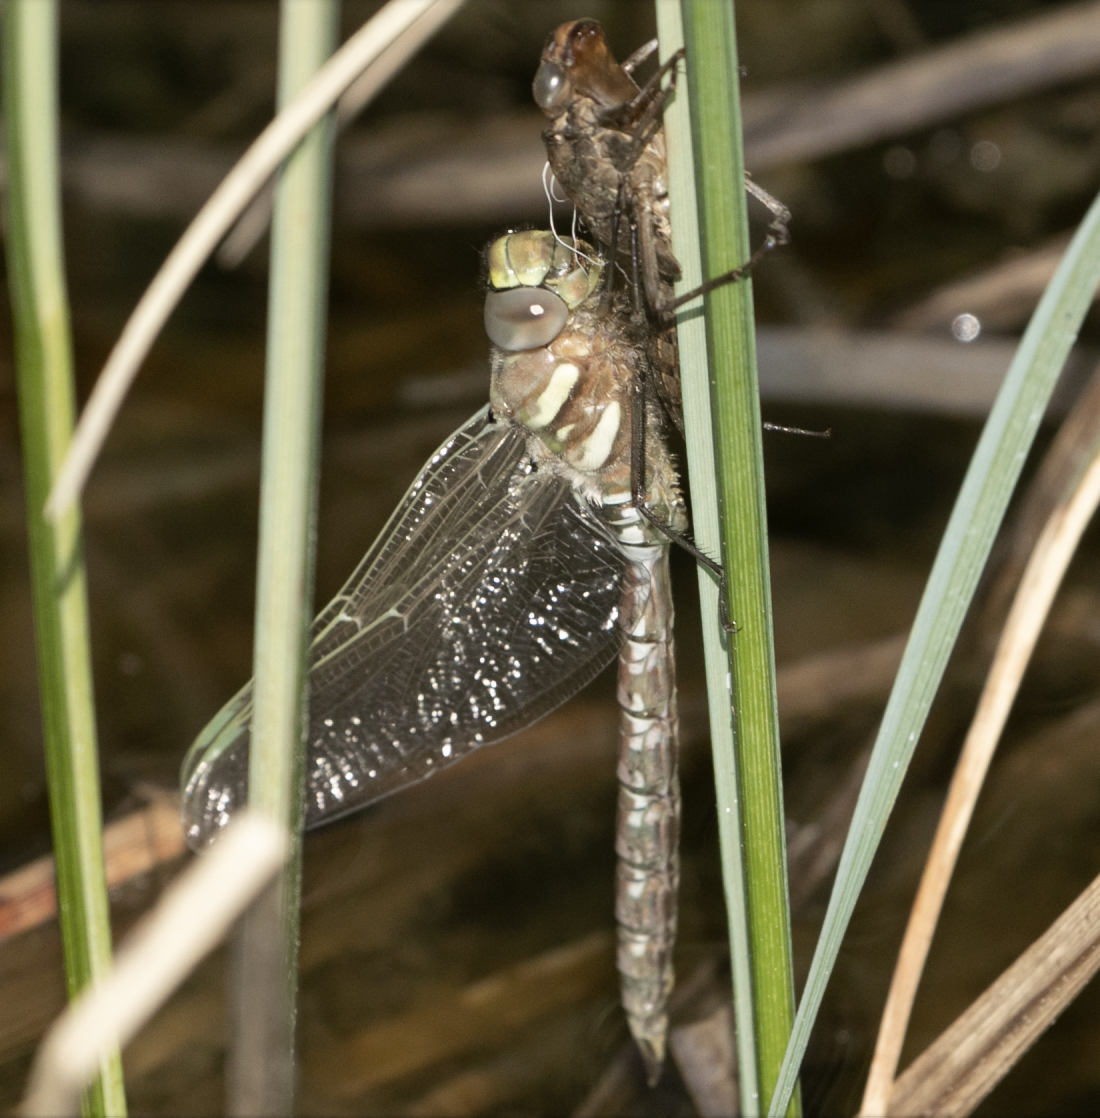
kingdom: Animalia
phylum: Arthropoda
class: Insecta
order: Odonata
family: Aeshnidae
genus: Aeshna
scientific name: Aeshna juncea
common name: Moorland hawker
